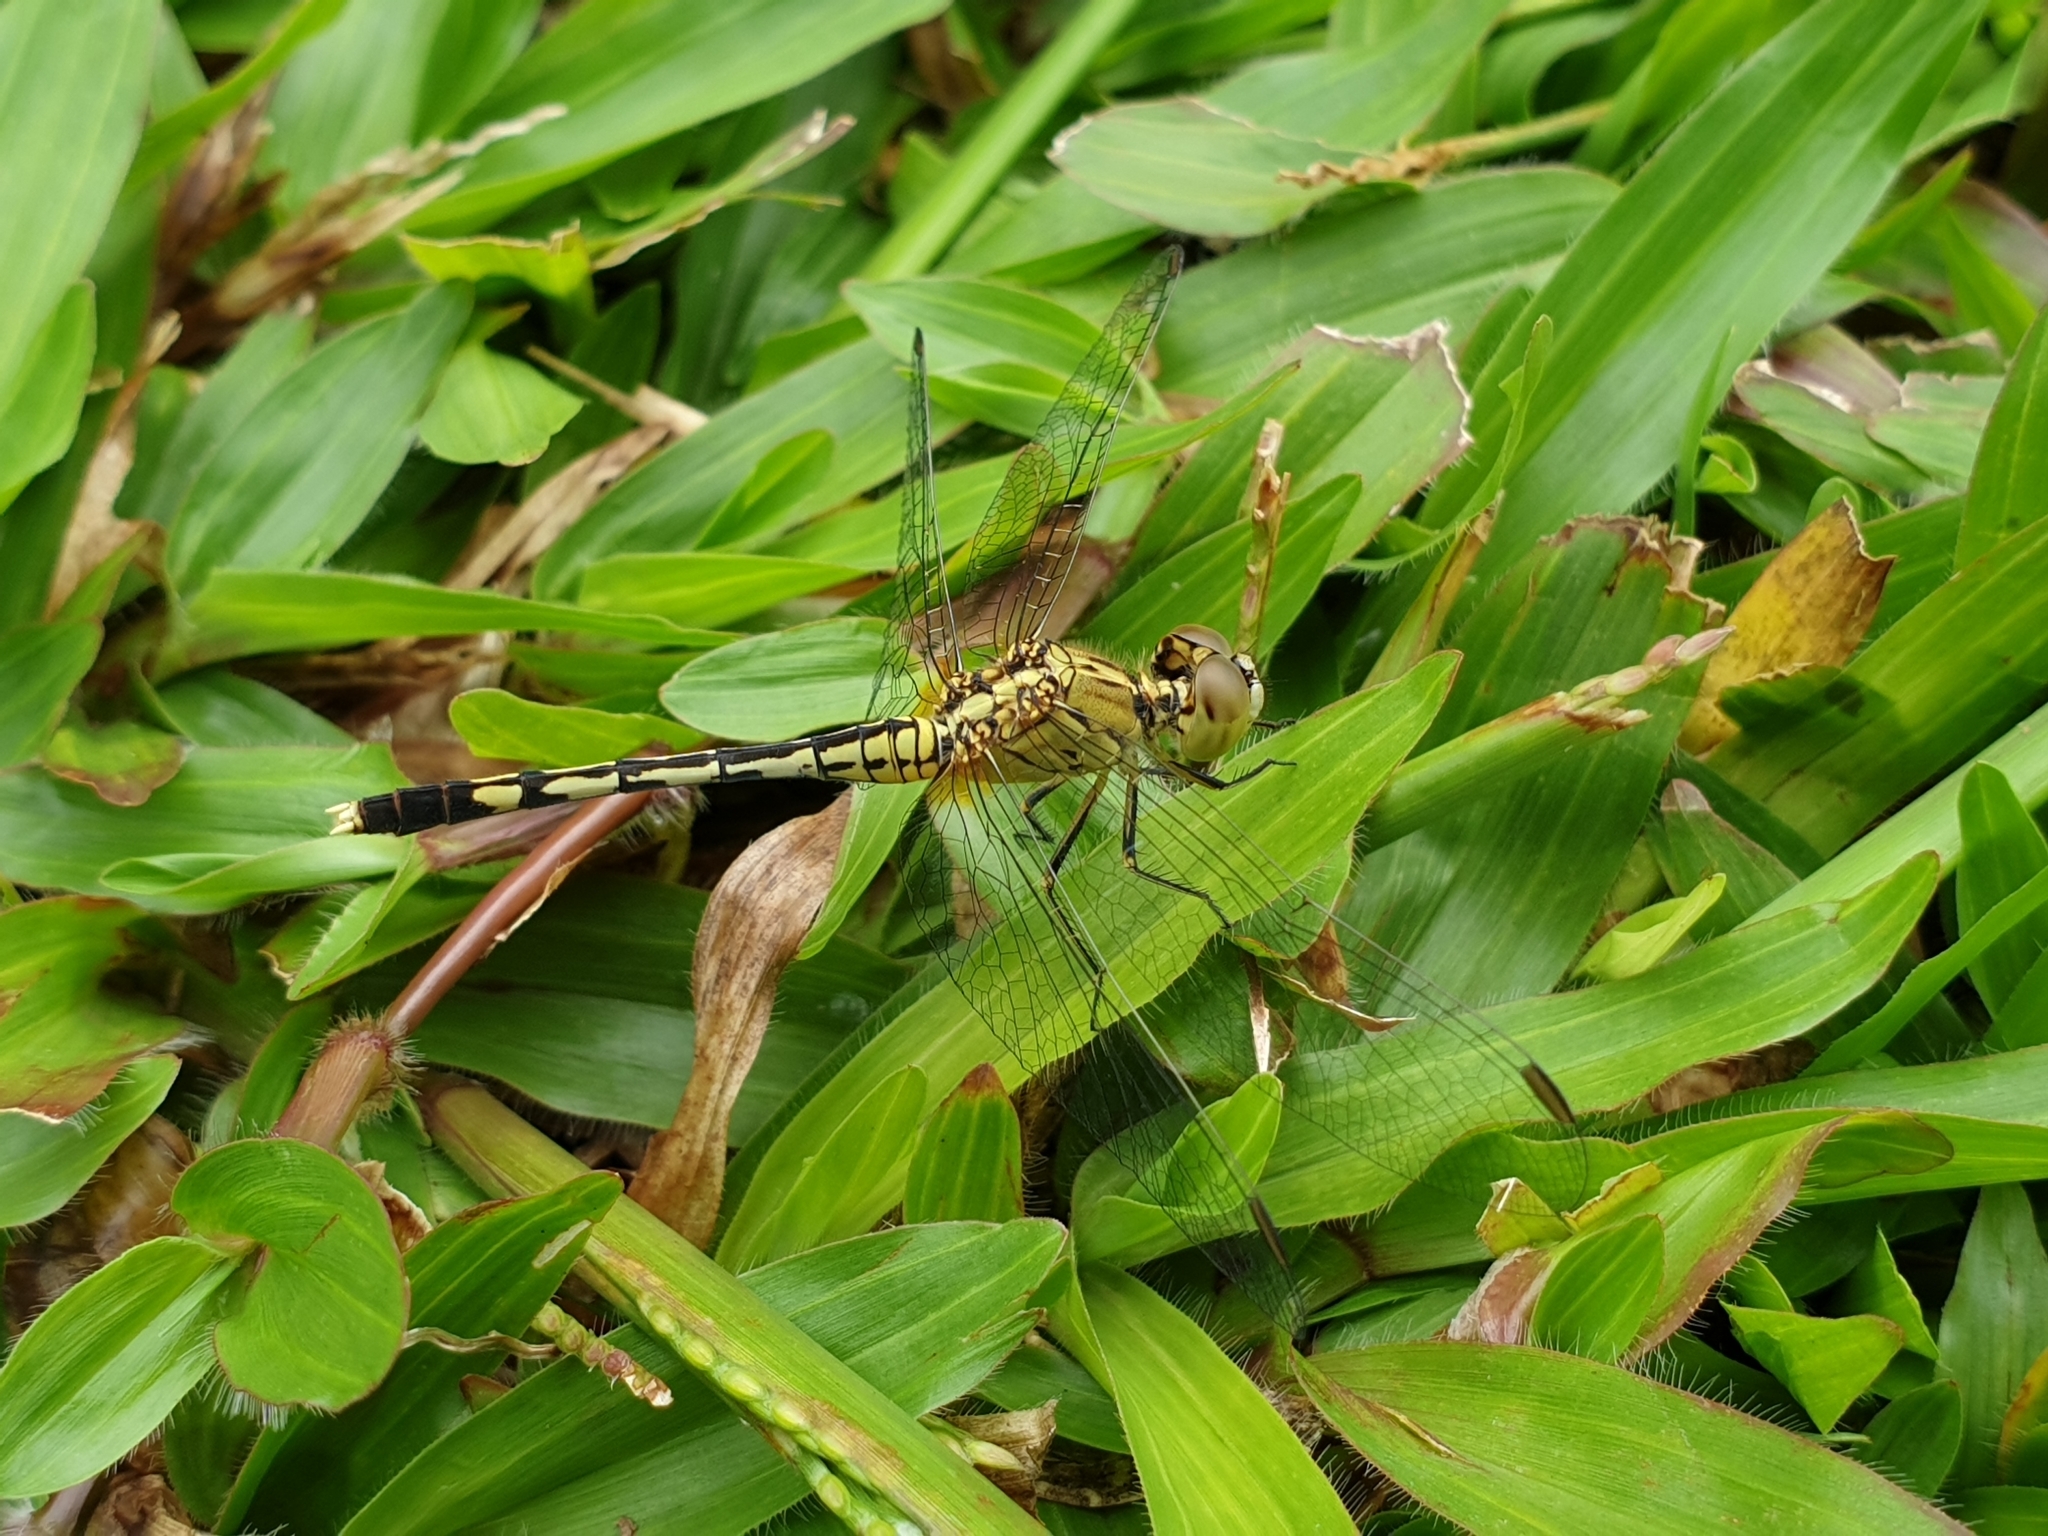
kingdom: Animalia
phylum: Arthropoda
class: Insecta
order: Odonata
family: Libellulidae
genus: Diplacodes
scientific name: Diplacodes trivialis
